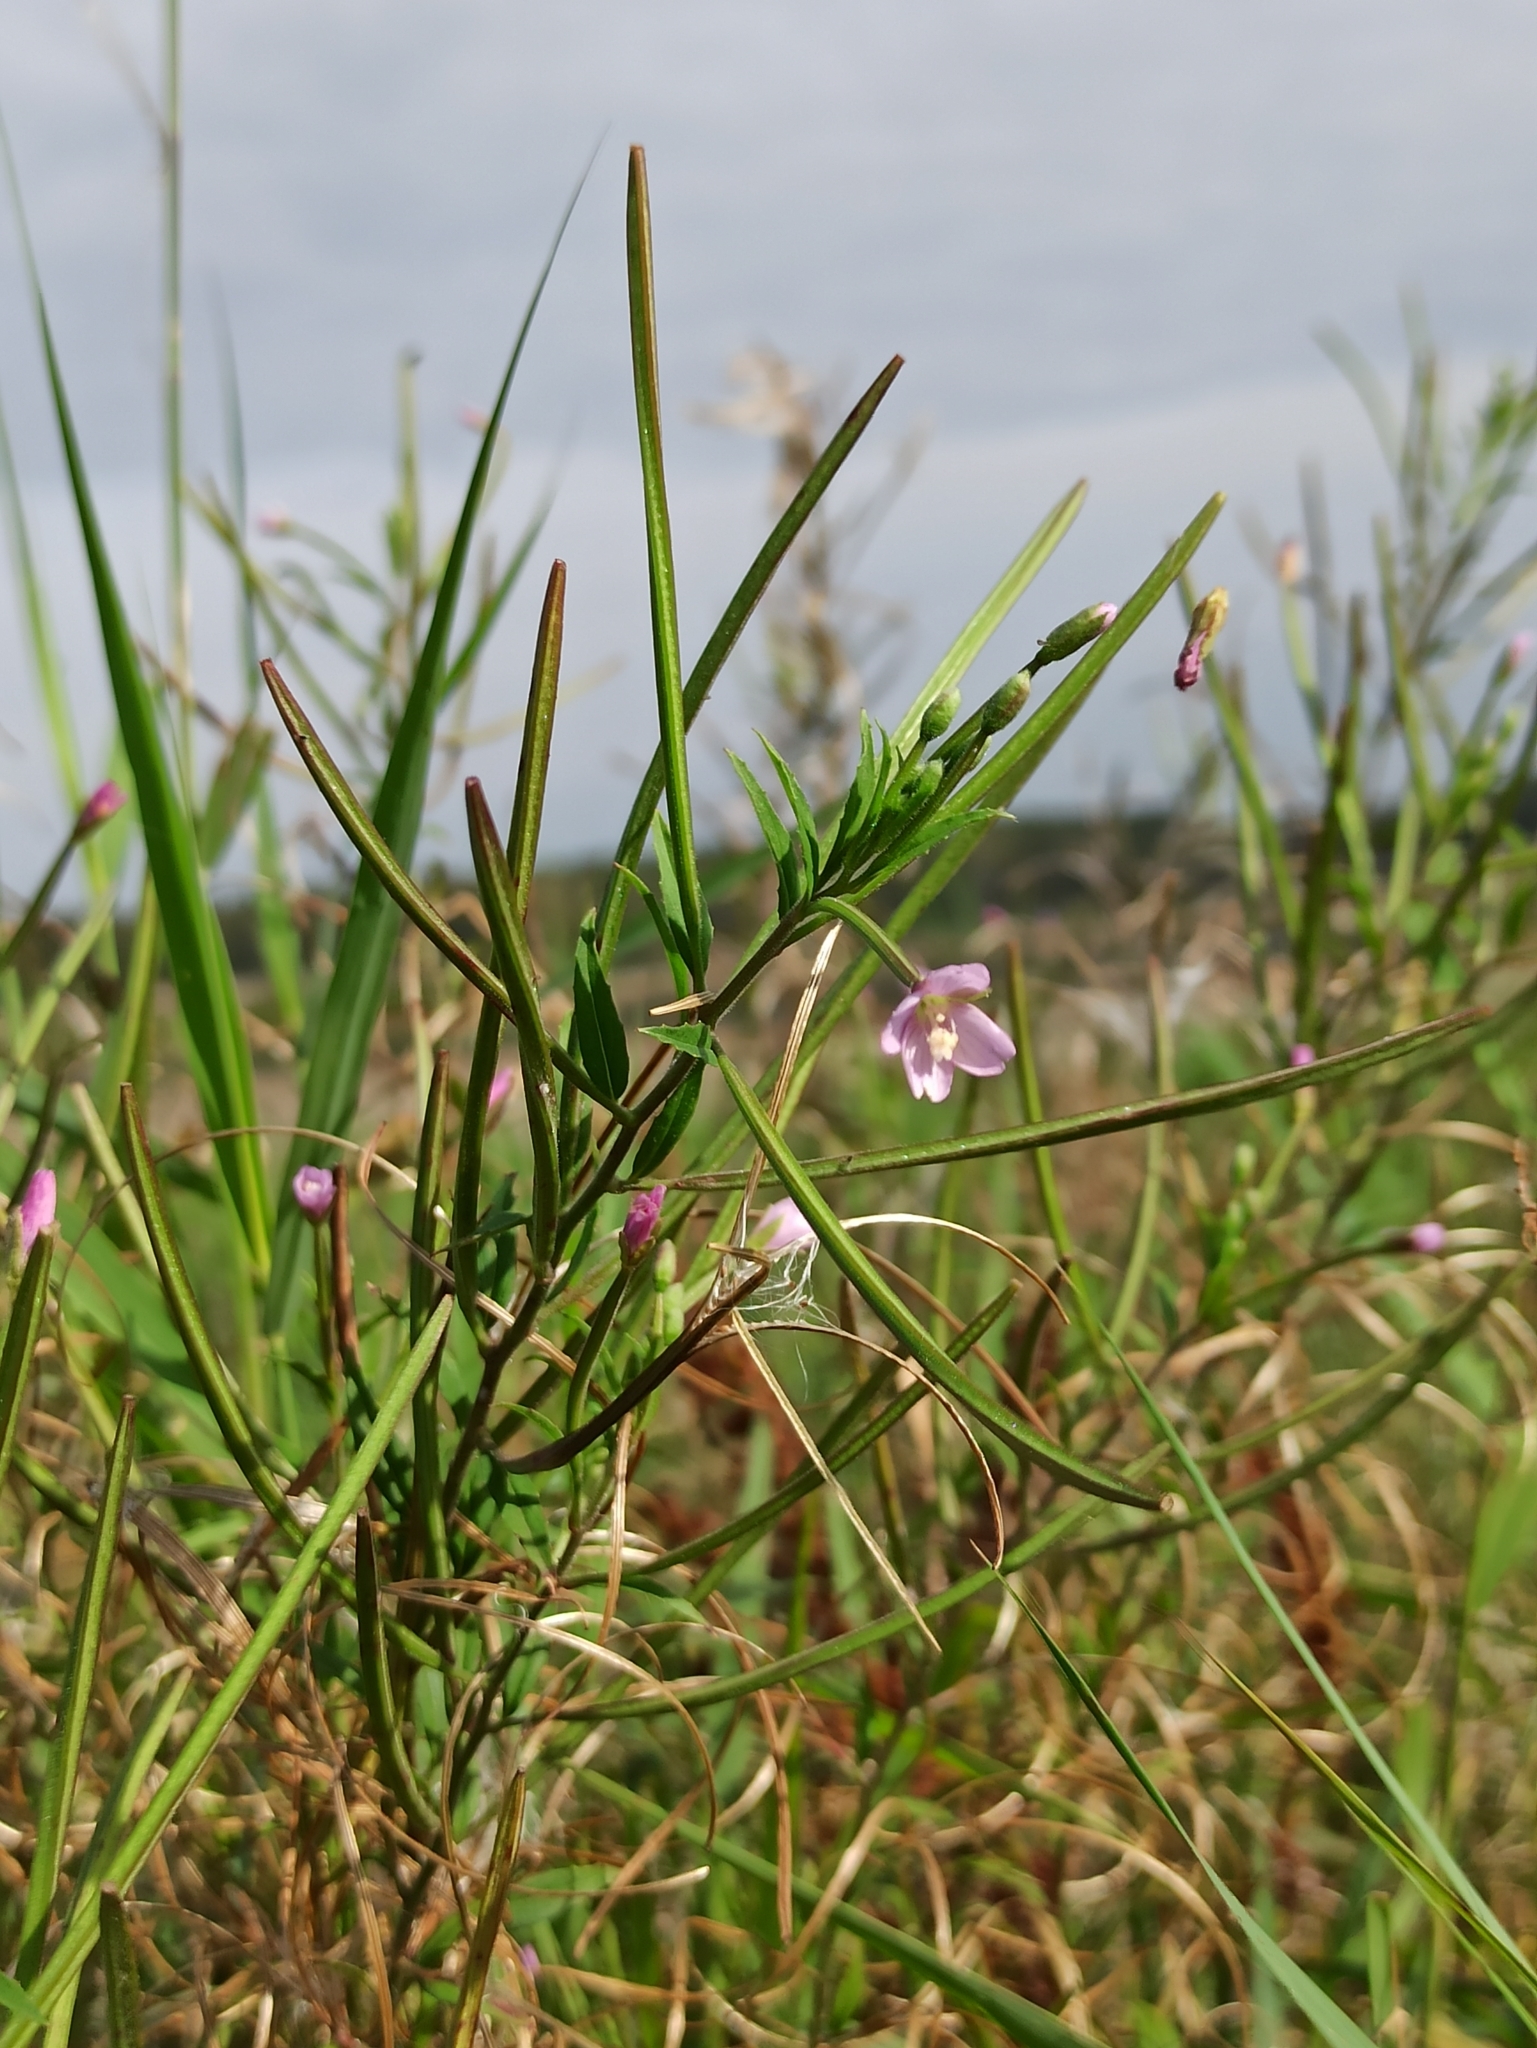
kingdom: Plantae
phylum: Tracheophyta
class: Magnoliopsida
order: Myrtales
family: Onagraceae
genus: Epilobium
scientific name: Epilobium ciliatum
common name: American willowherb
